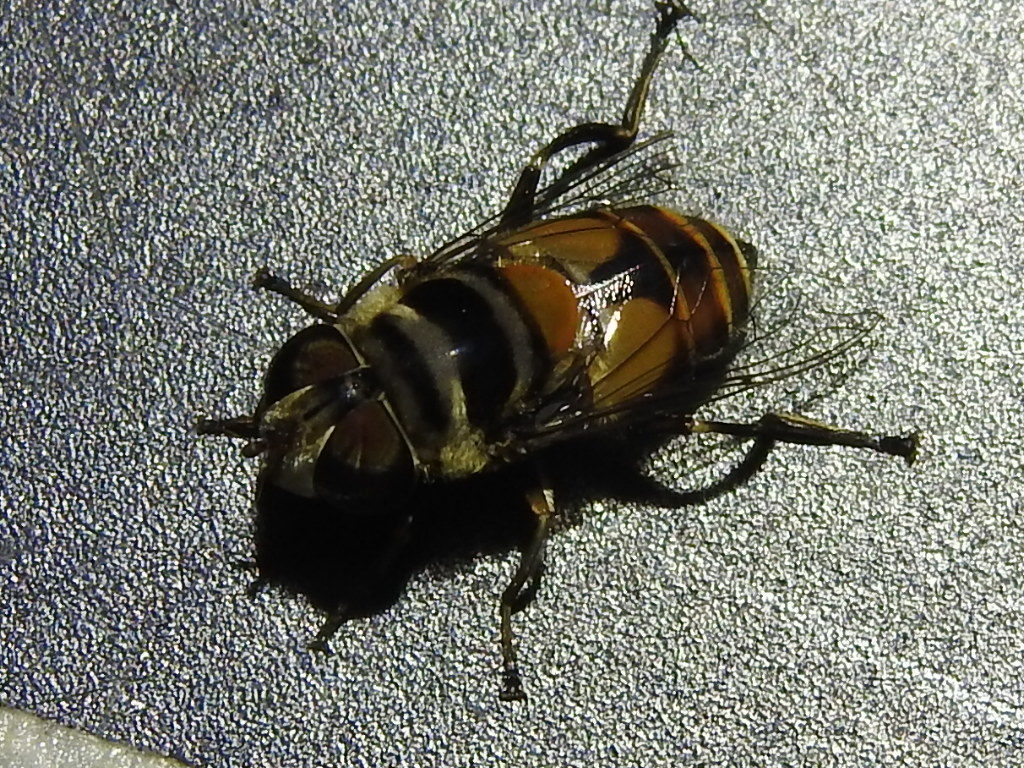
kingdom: Animalia
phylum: Arthropoda
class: Insecta
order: Diptera
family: Syrphidae
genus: Palpada
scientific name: Palpada rufiventris
